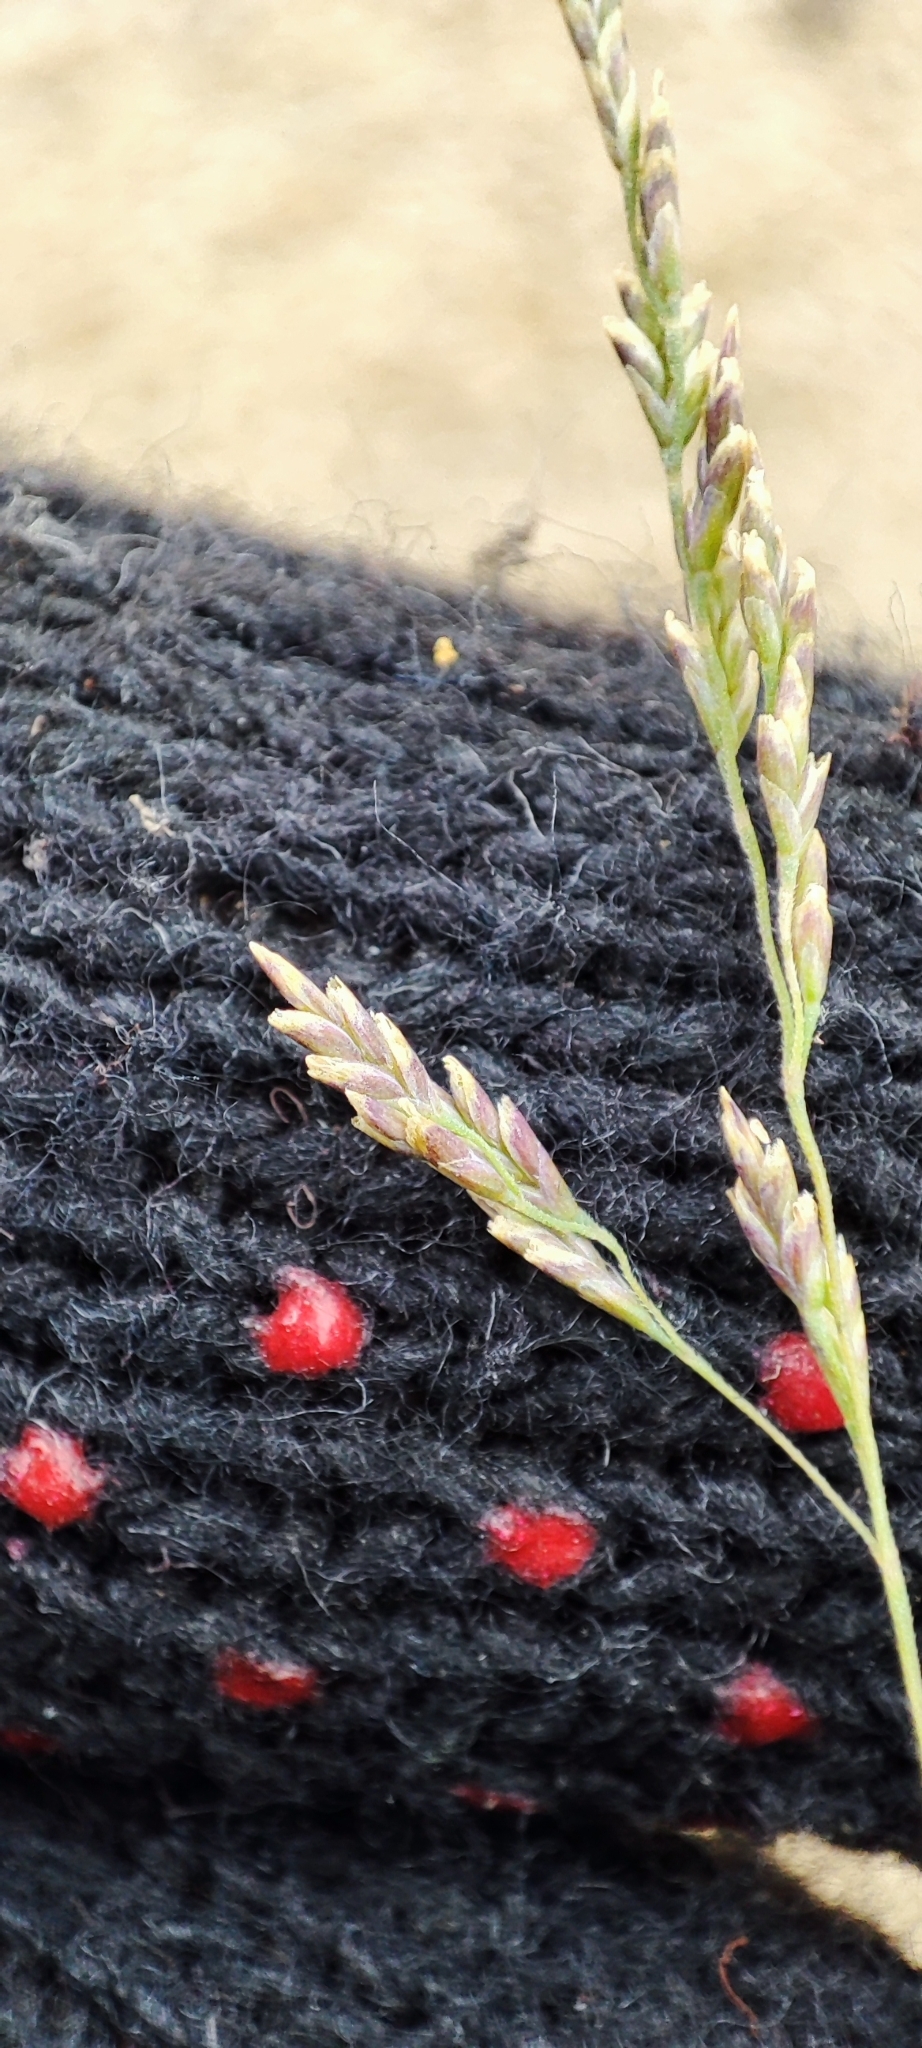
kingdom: Plantae
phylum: Tracheophyta
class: Liliopsida
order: Poales
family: Poaceae
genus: Puccinellia
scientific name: Puccinellia hauptiana
